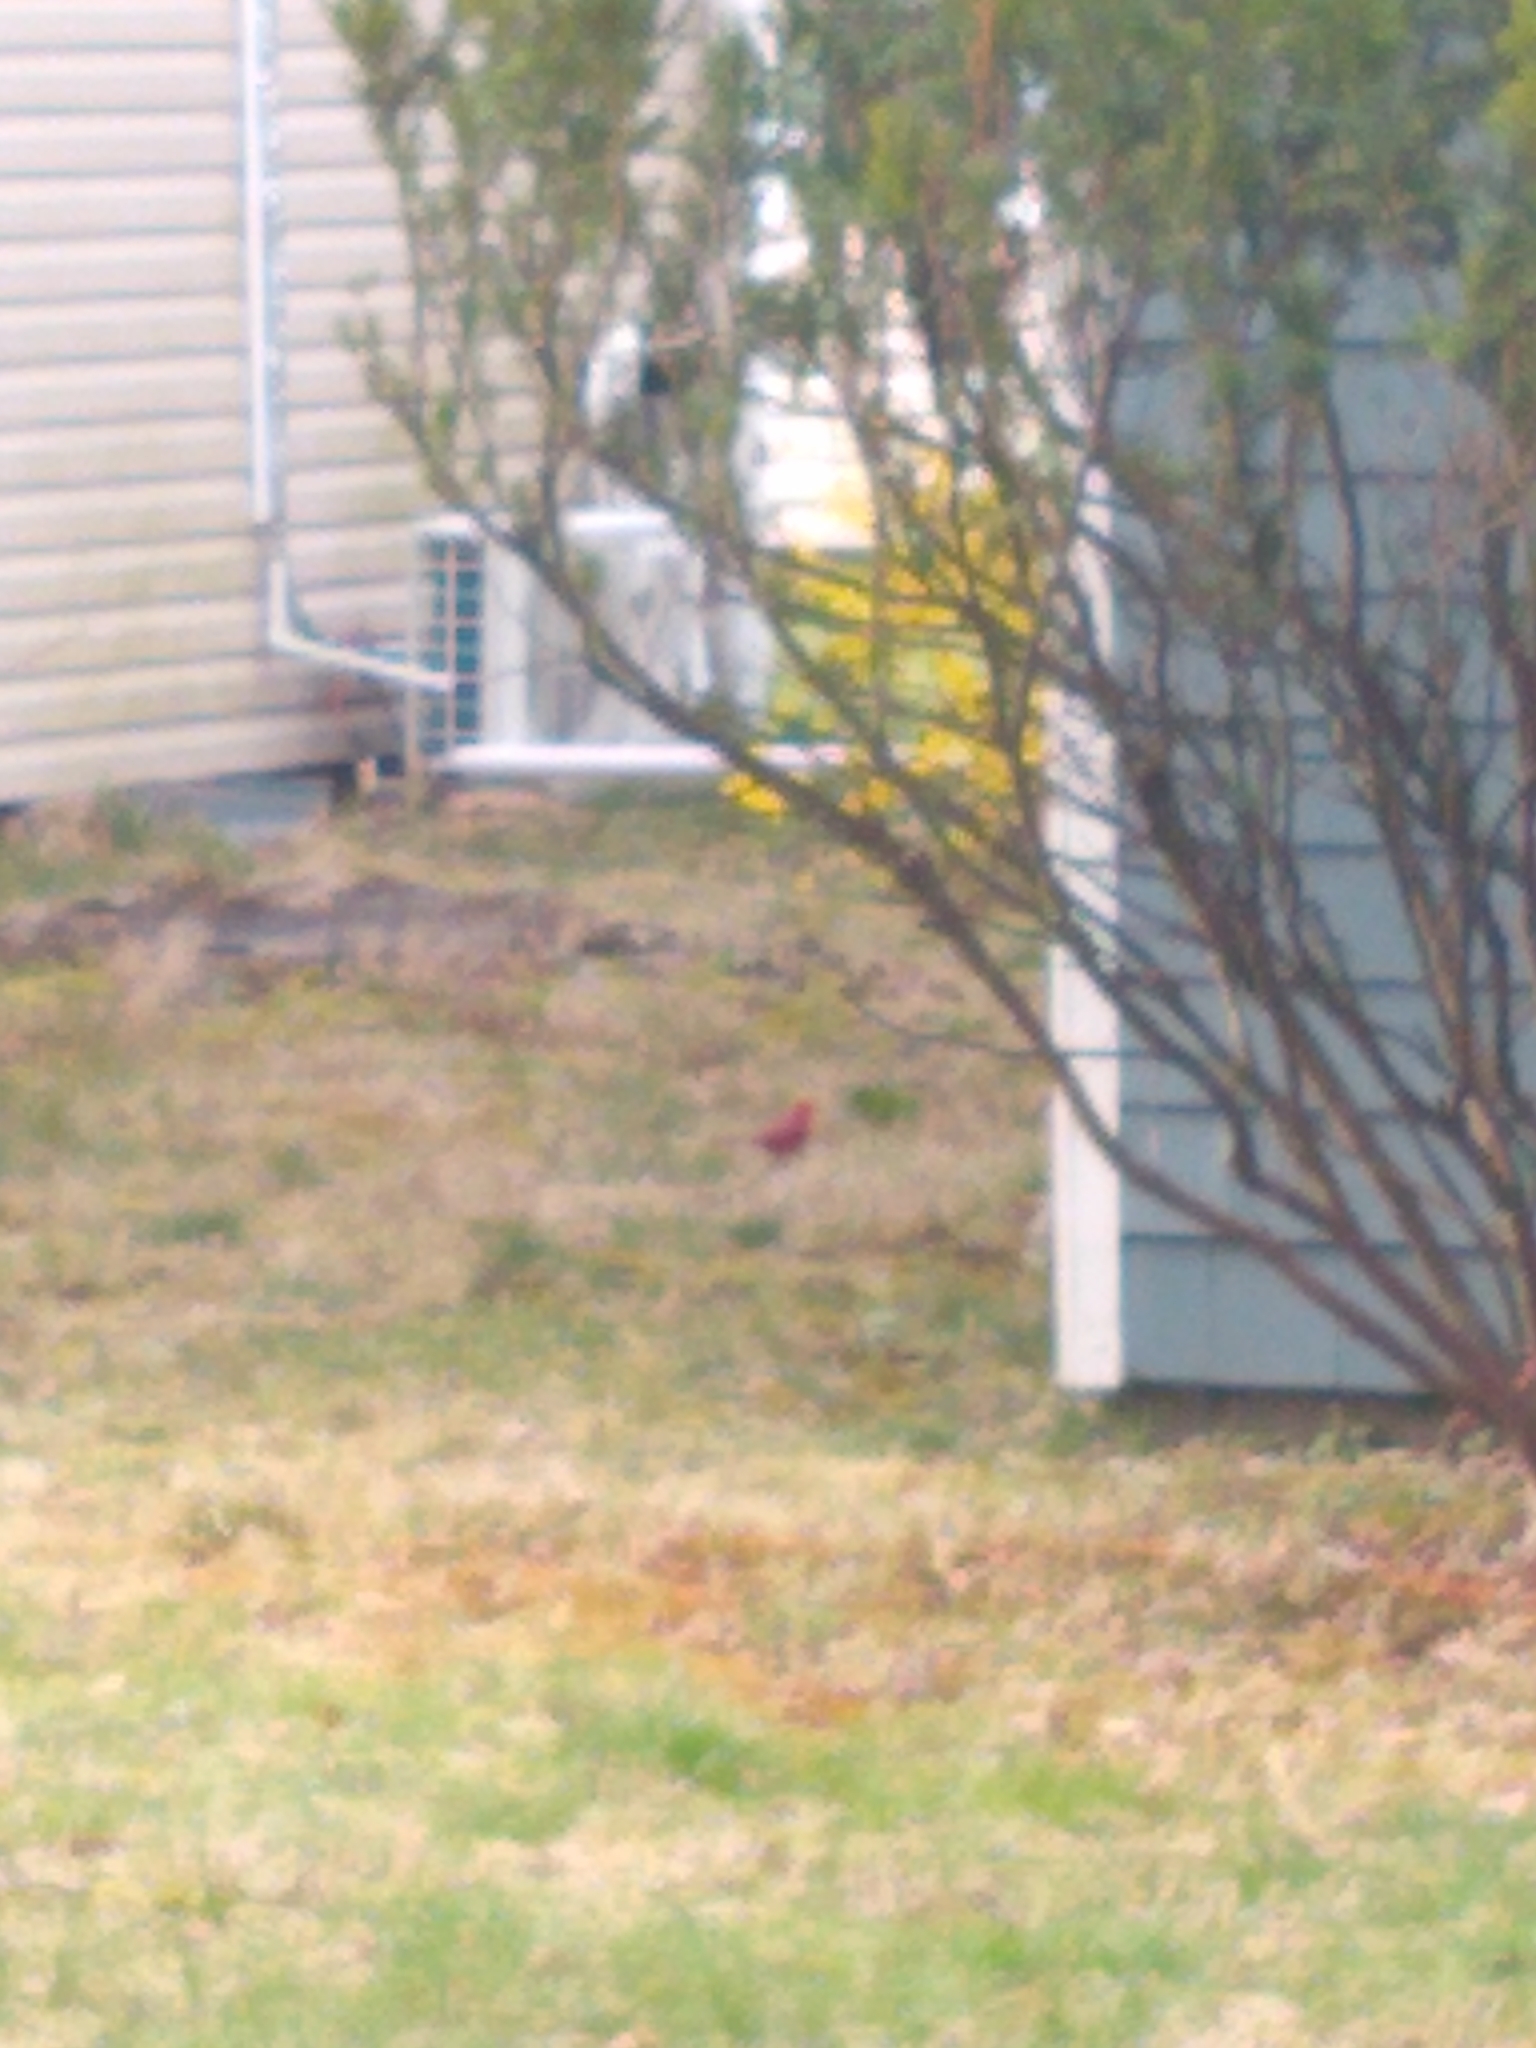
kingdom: Animalia
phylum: Chordata
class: Aves
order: Passeriformes
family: Cardinalidae
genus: Cardinalis
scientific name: Cardinalis cardinalis
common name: Northern cardinal
